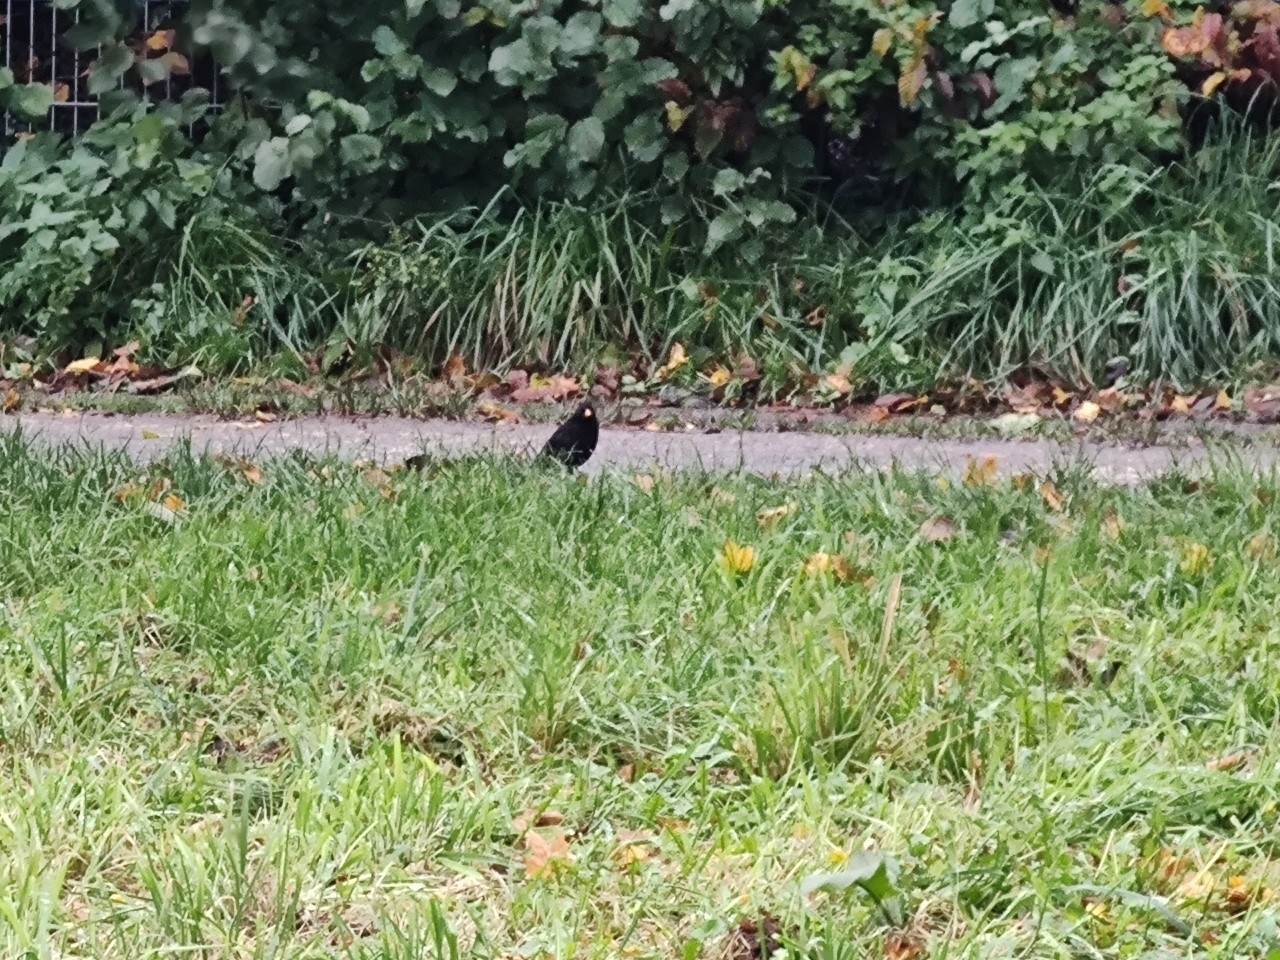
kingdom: Animalia
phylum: Chordata
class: Aves
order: Passeriformes
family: Turdidae
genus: Turdus
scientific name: Turdus merula
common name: Common blackbird
